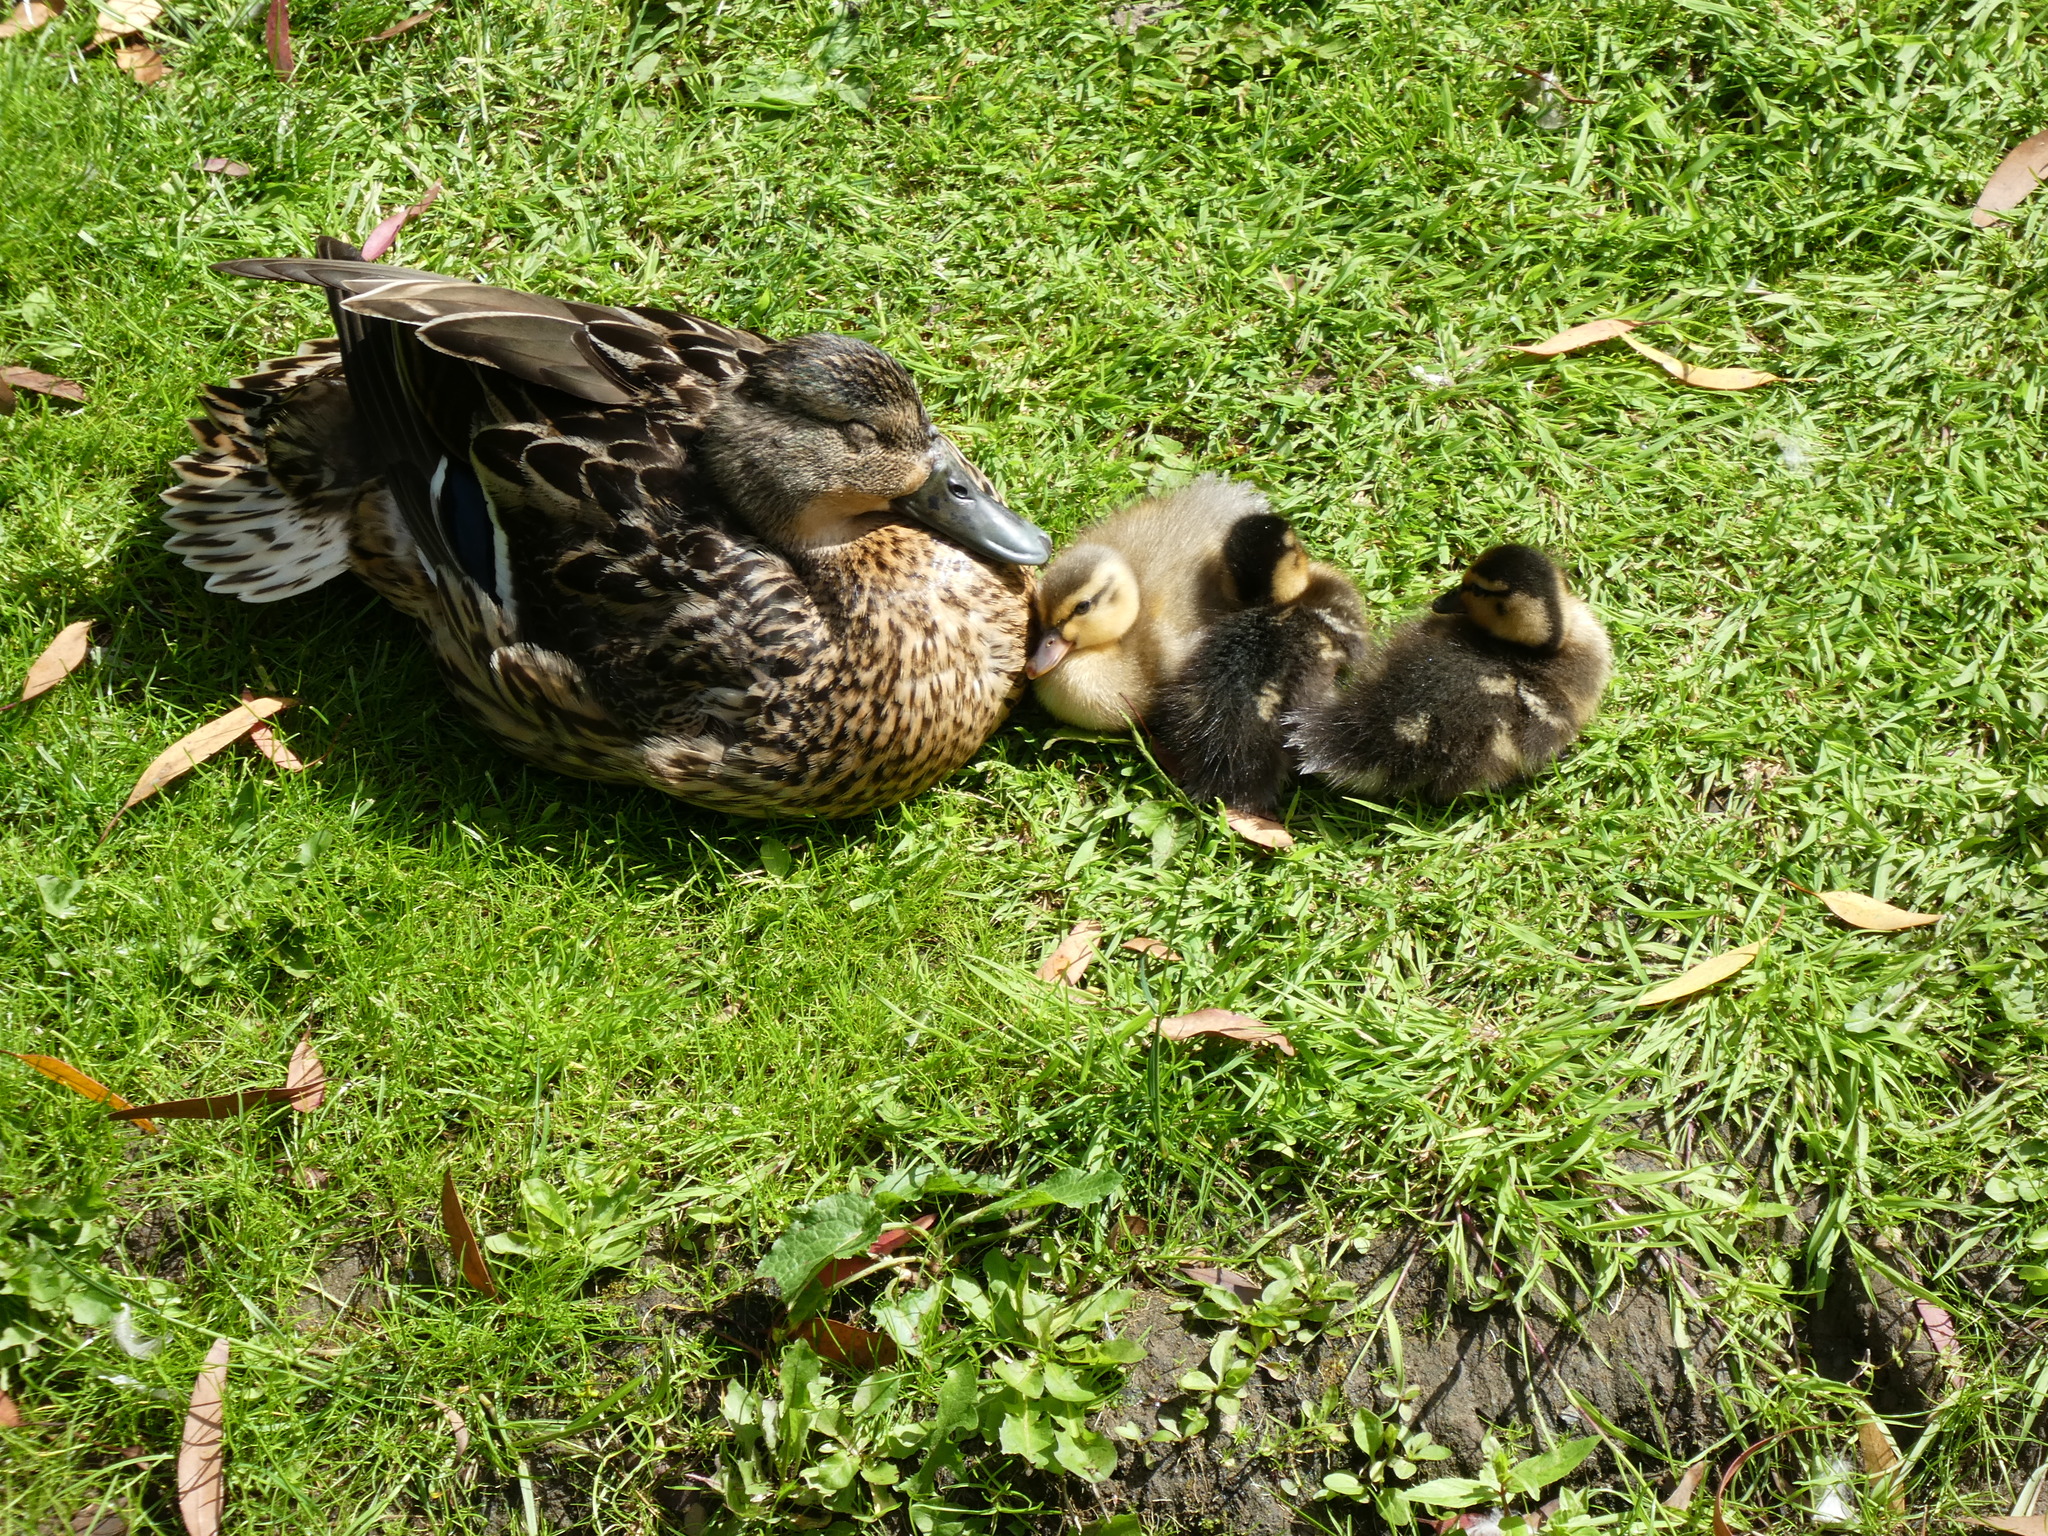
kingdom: Animalia
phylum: Chordata
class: Aves
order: Anseriformes
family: Anatidae
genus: Anas
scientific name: Anas platyrhynchos
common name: Mallard
